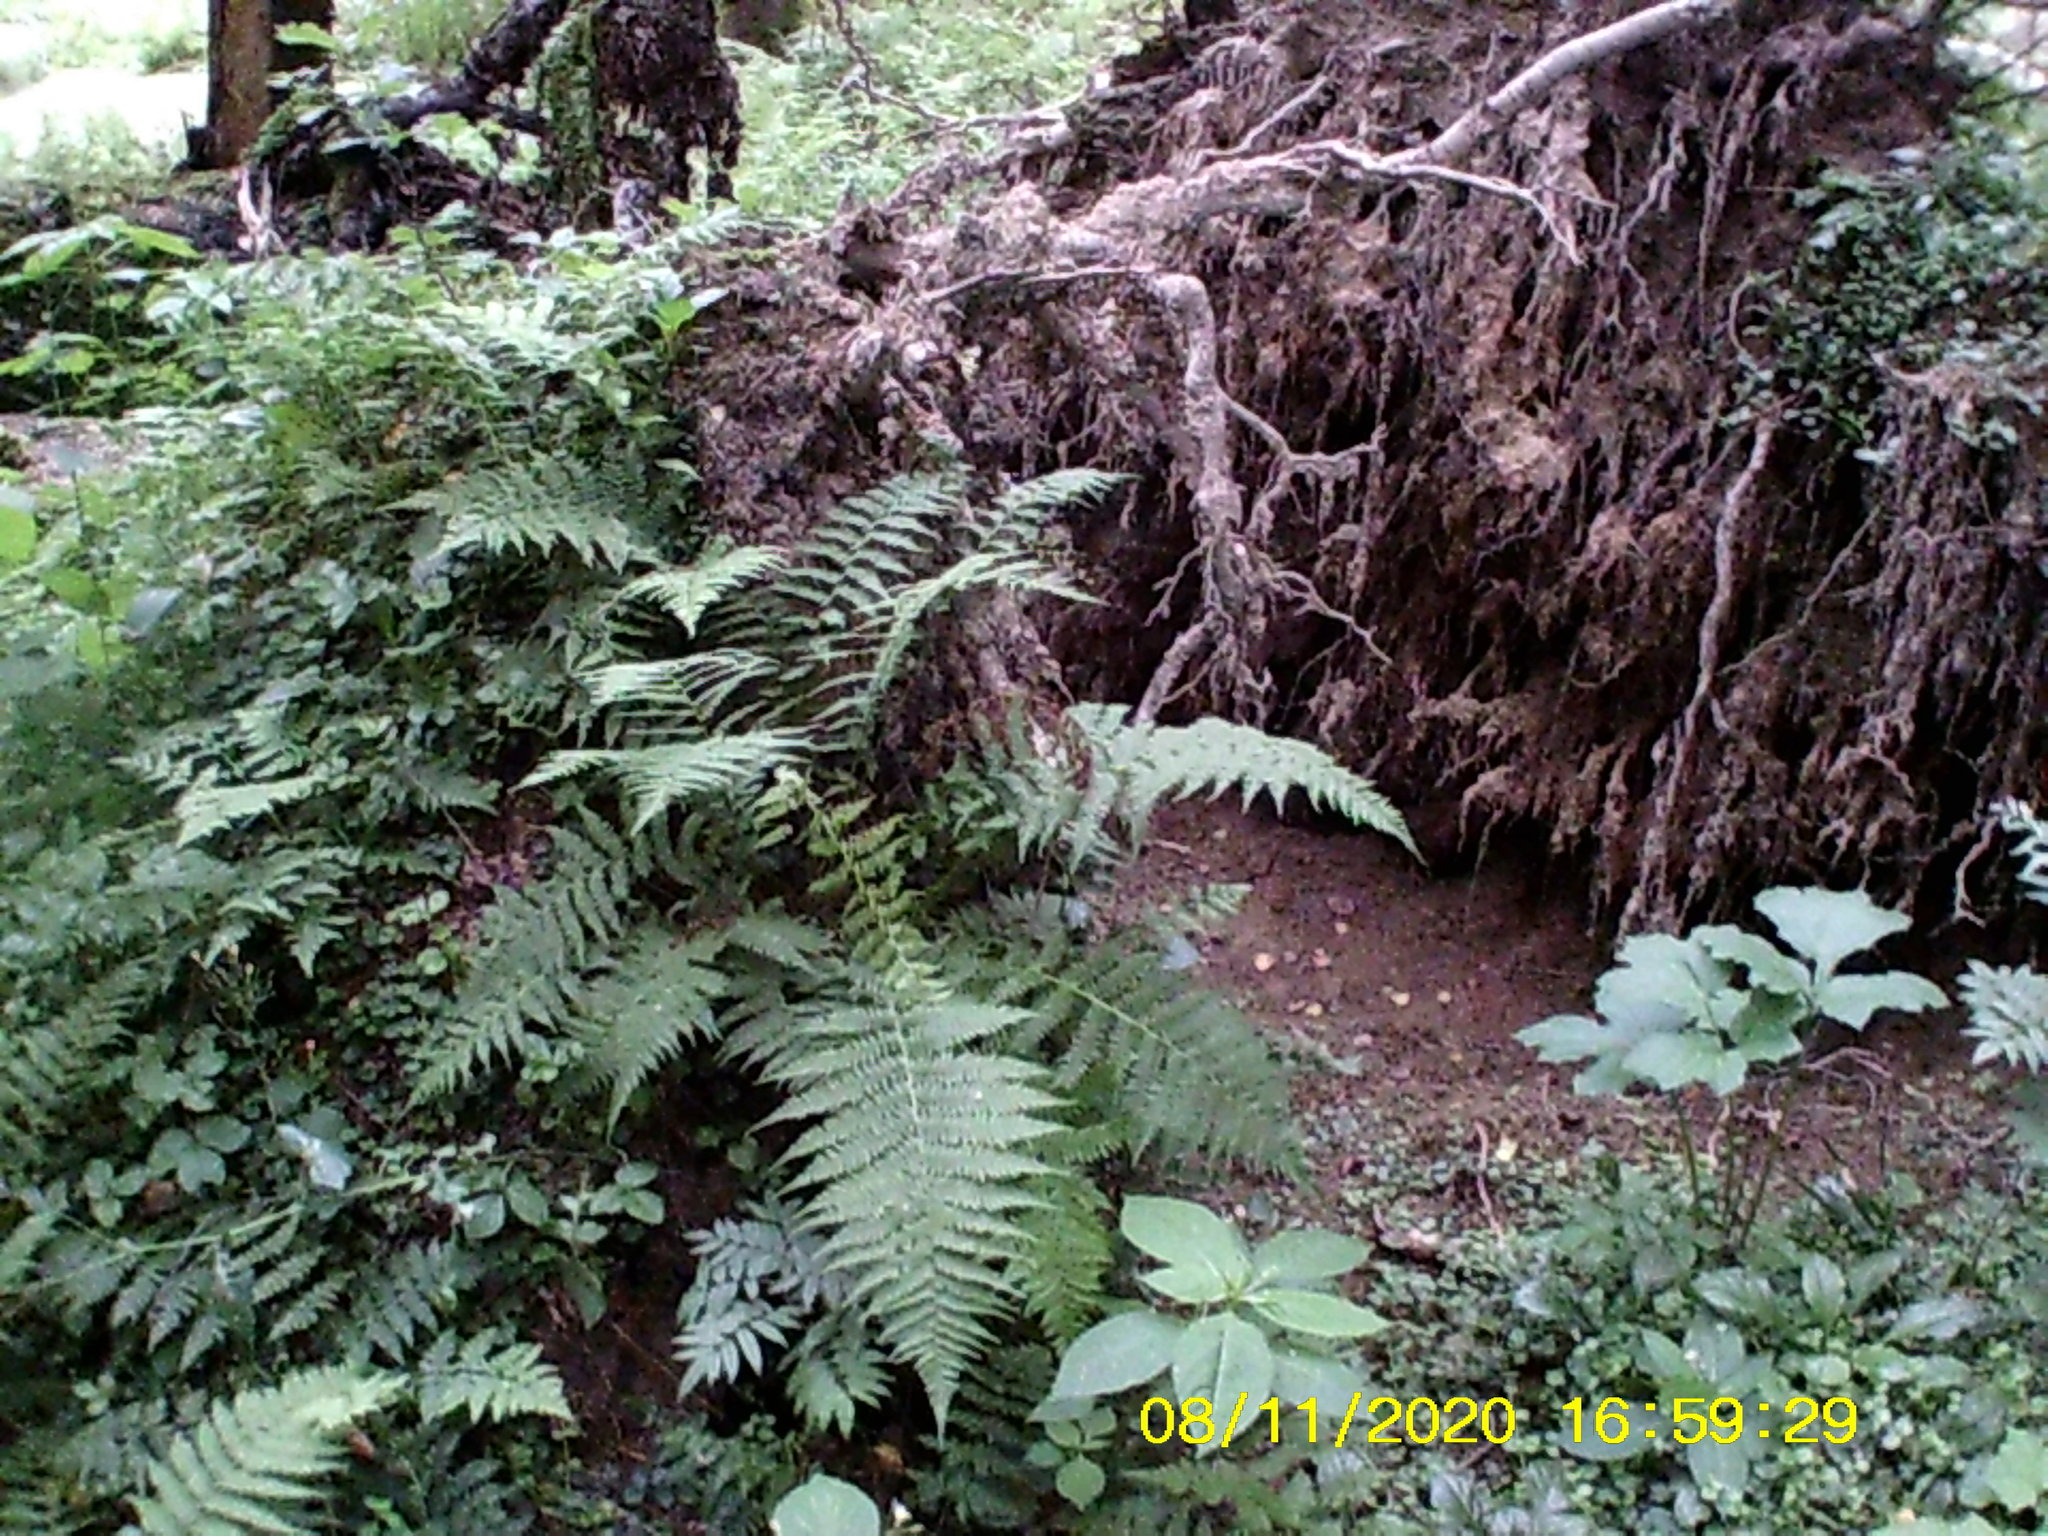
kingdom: Plantae
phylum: Tracheophyta
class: Polypodiopsida
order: Polypodiales
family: Dryopteridaceae
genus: Dryopteris
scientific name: Dryopteris filix-mas
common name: Male fern
